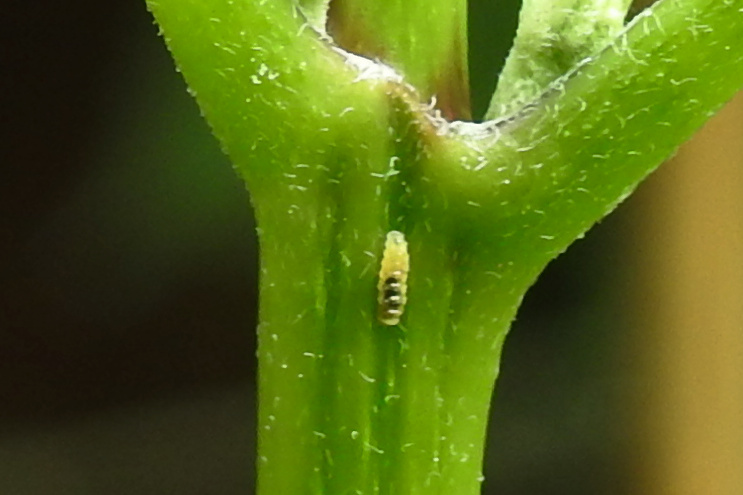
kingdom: Animalia
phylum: Arthropoda
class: Insecta
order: Diptera
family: Syrphidae
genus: Eupeodes
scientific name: Eupeodes
